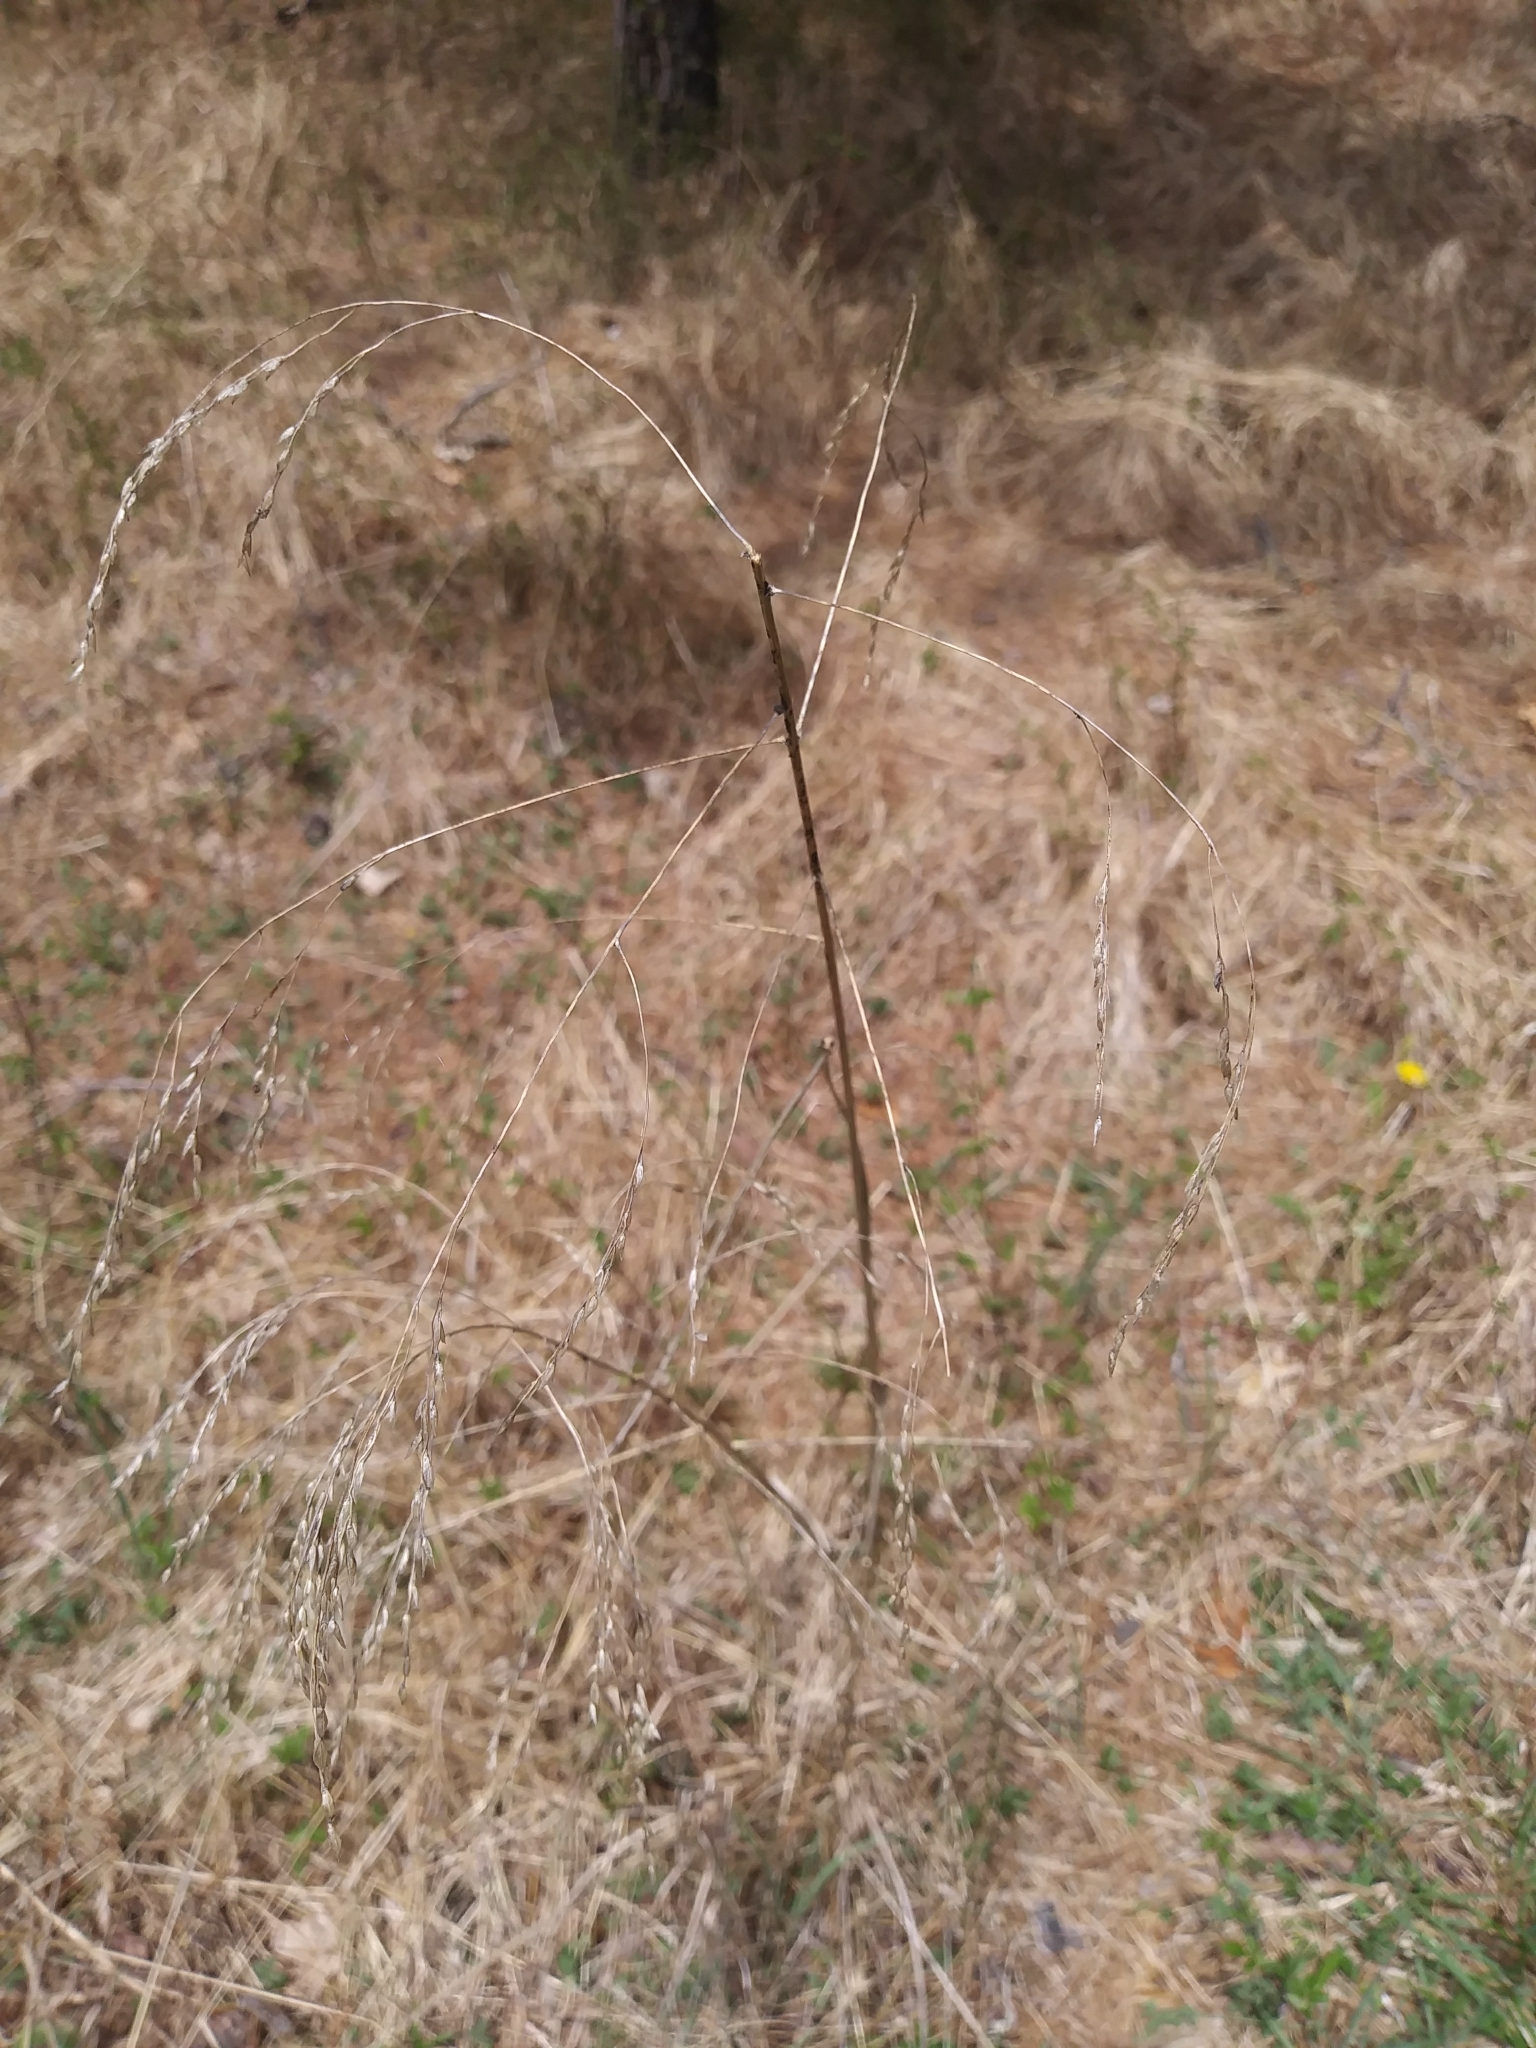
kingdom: Plantae
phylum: Tracheophyta
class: Liliopsida
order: Poales
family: Poaceae
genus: Tridens
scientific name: Tridens flavus
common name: Purpletop
